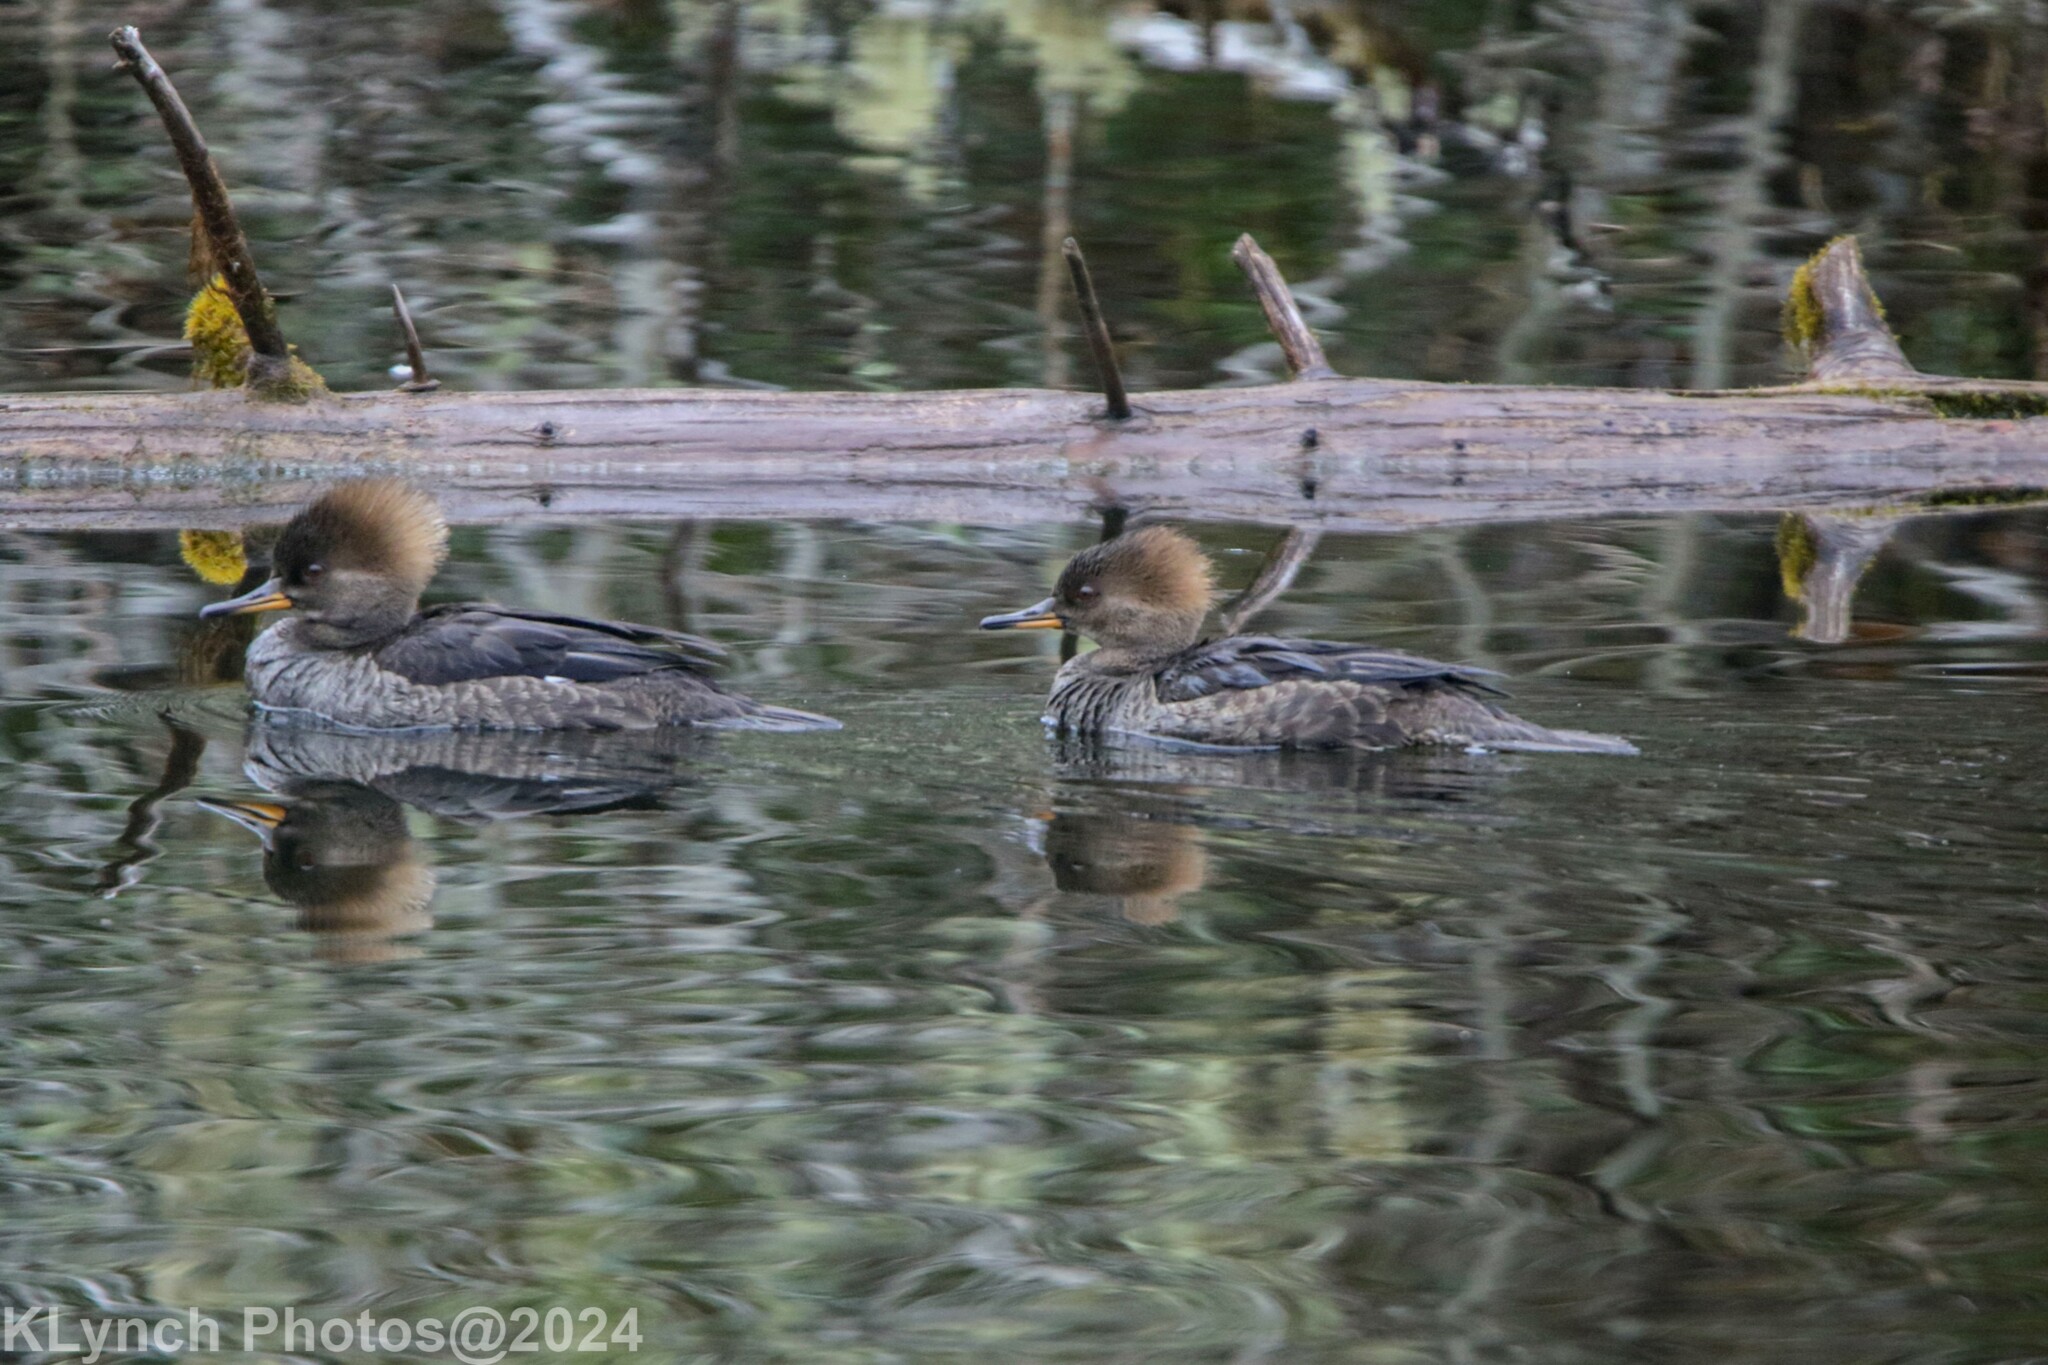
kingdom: Animalia
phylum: Chordata
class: Aves
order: Anseriformes
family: Anatidae
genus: Lophodytes
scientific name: Lophodytes cucullatus
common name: Hooded merganser
